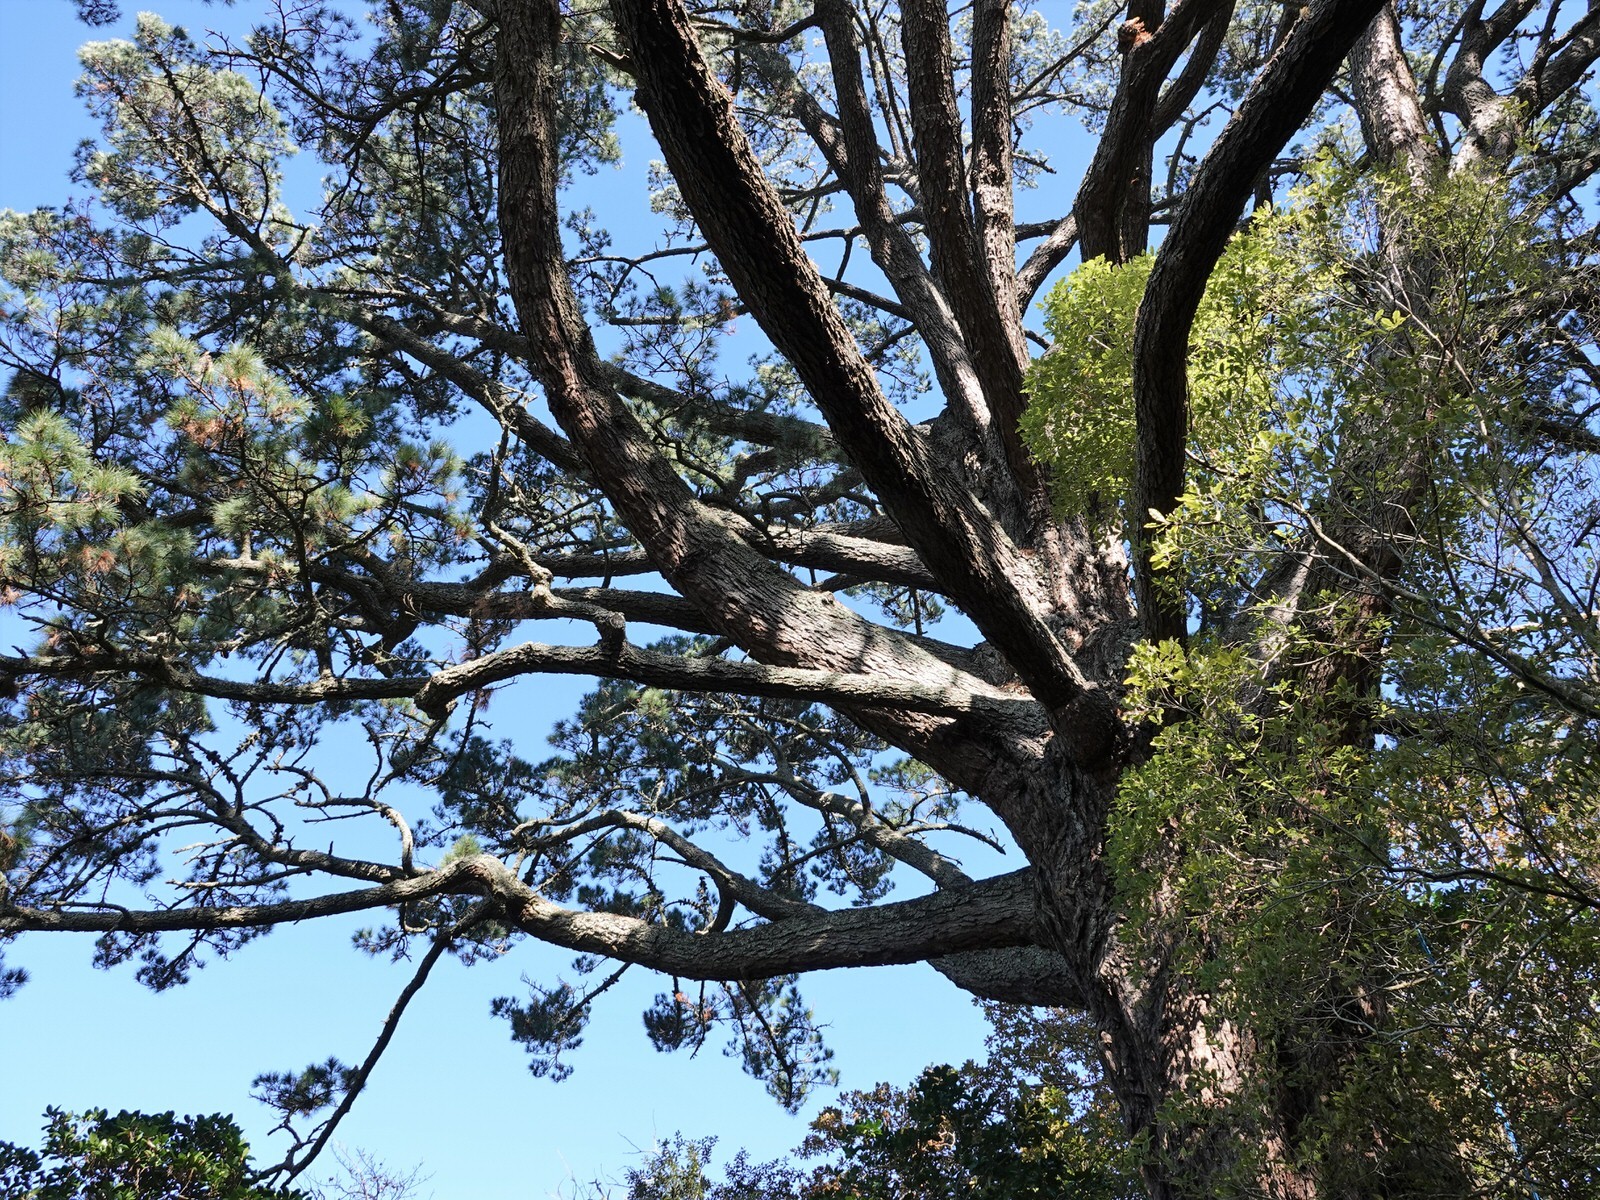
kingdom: Plantae
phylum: Tracheophyta
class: Pinopsida
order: Pinales
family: Pinaceae
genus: Pinus
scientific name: Pinus pinaster
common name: Maritime pine
